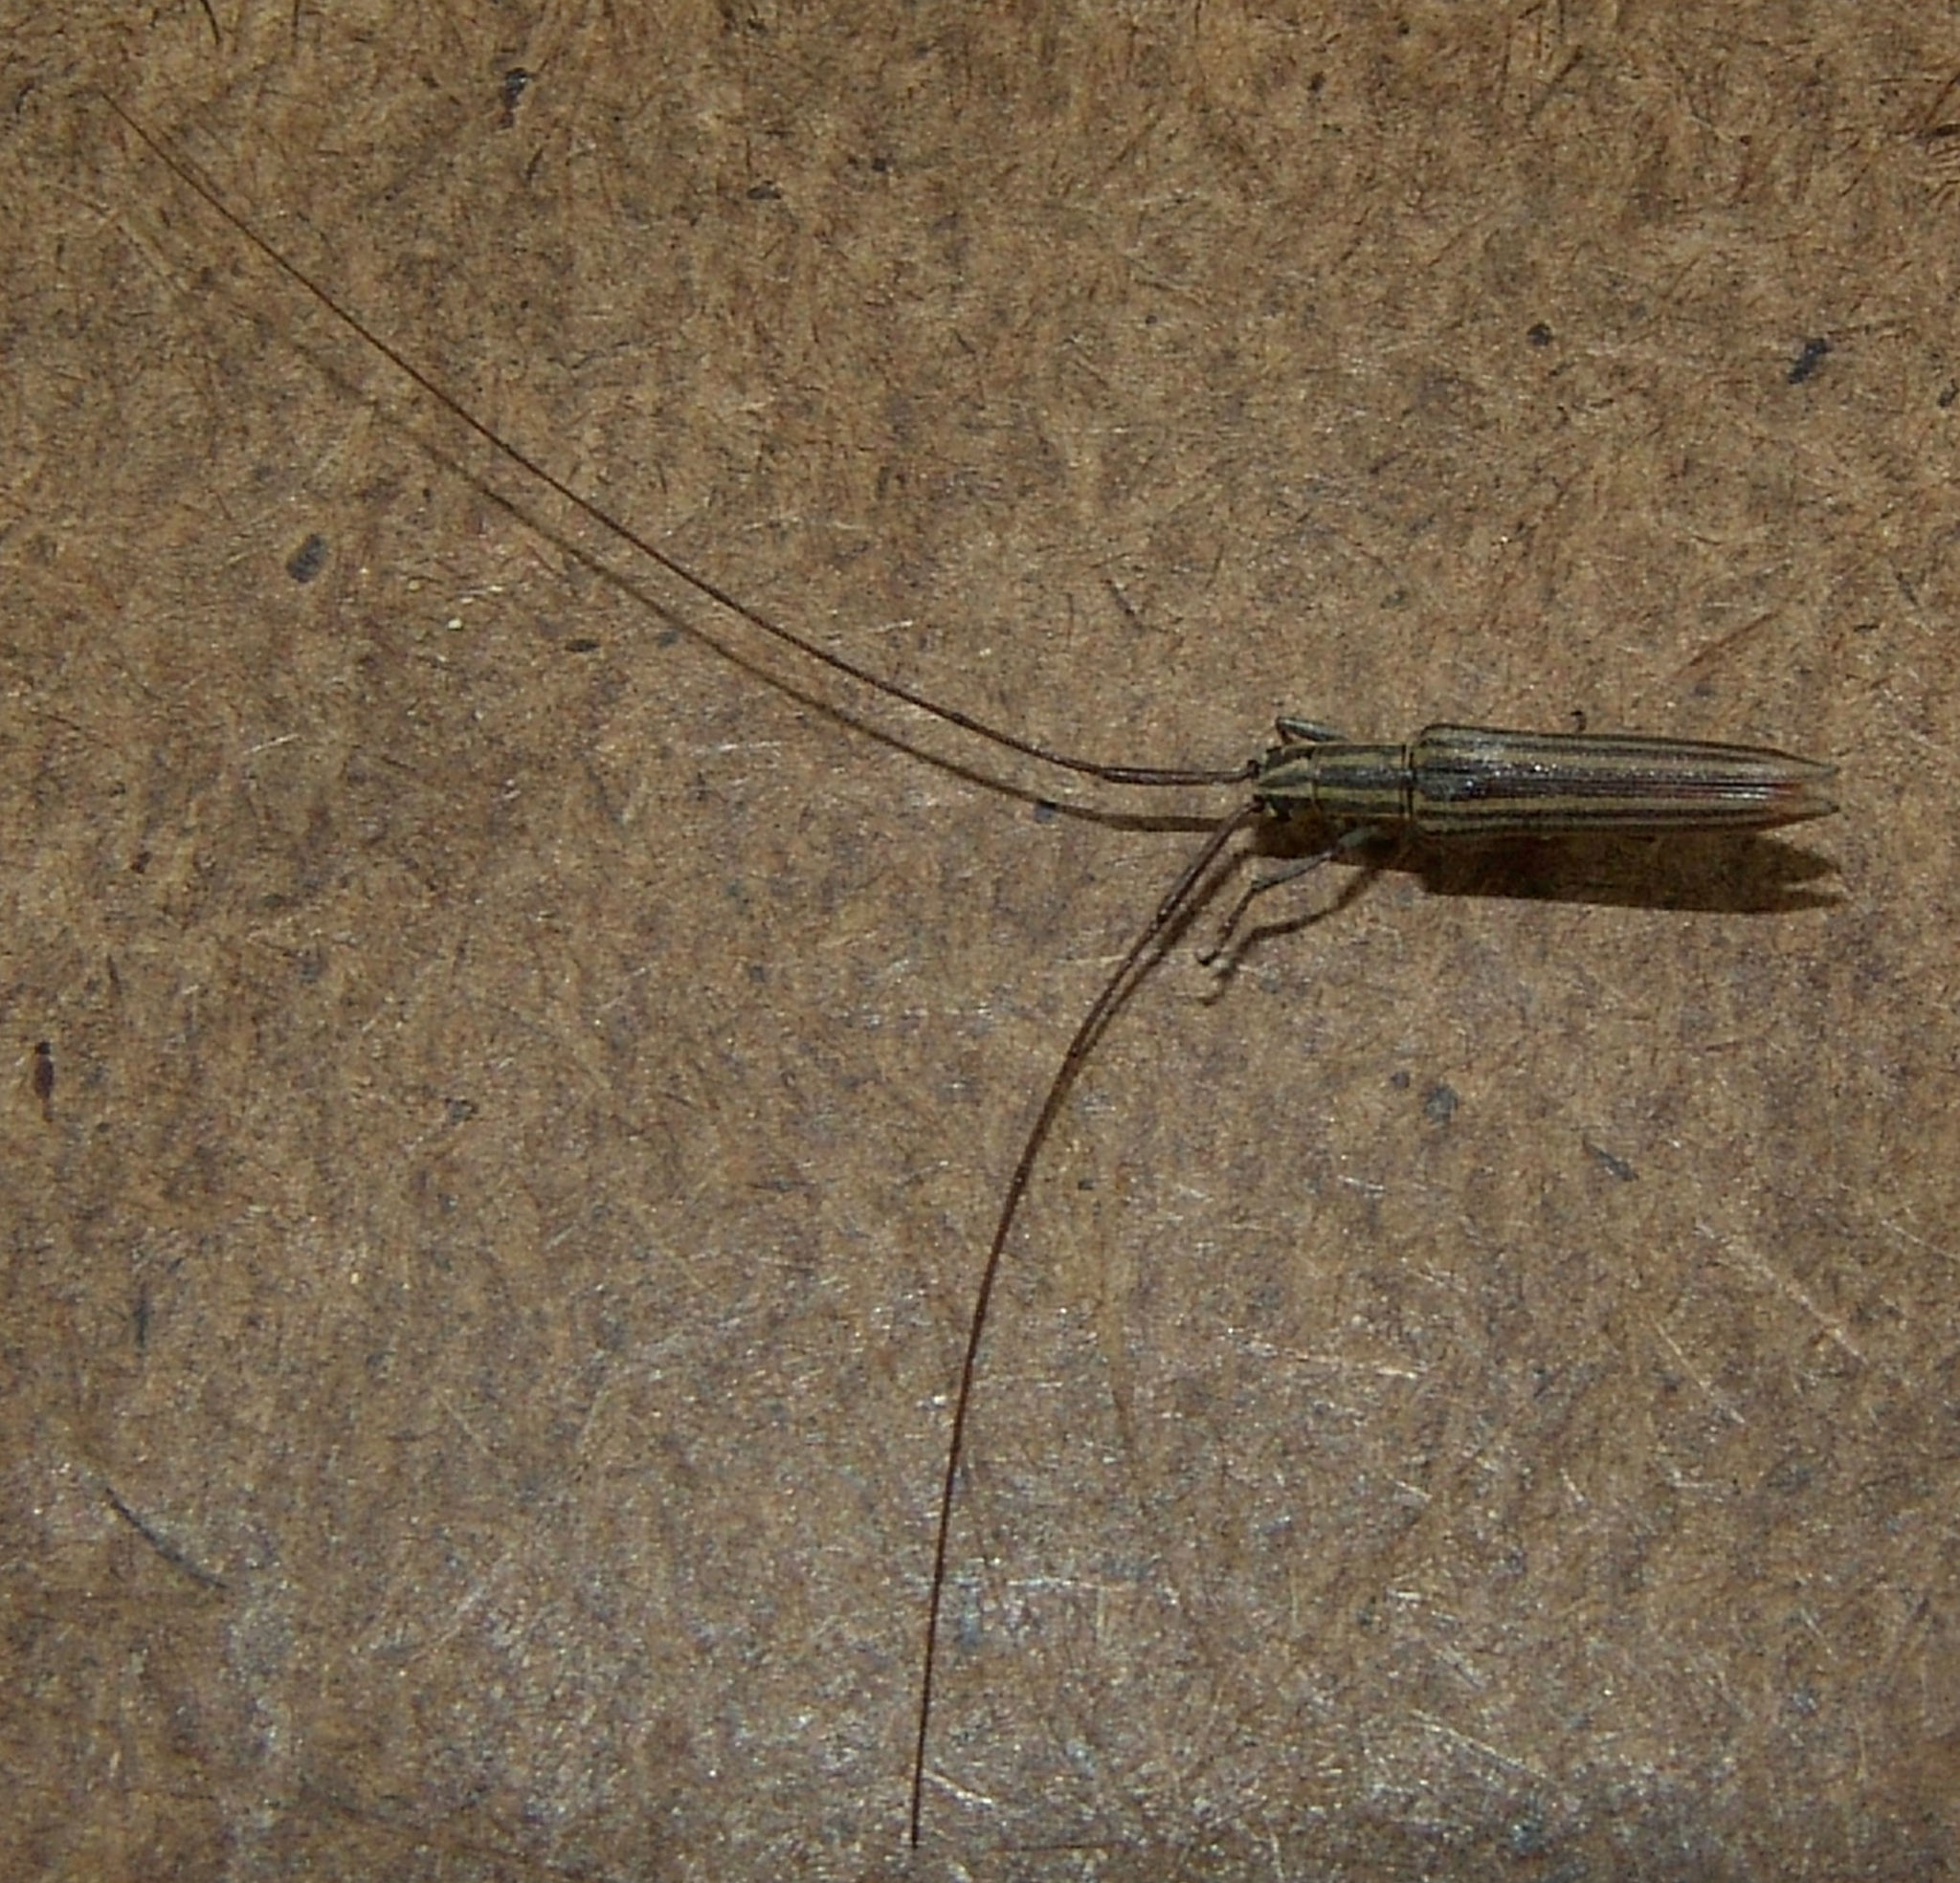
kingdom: Animalia
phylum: Arthropoda
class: Insecta
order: Coleoptera
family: Cerambycidae
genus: Hippopsis
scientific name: Hippopsis
